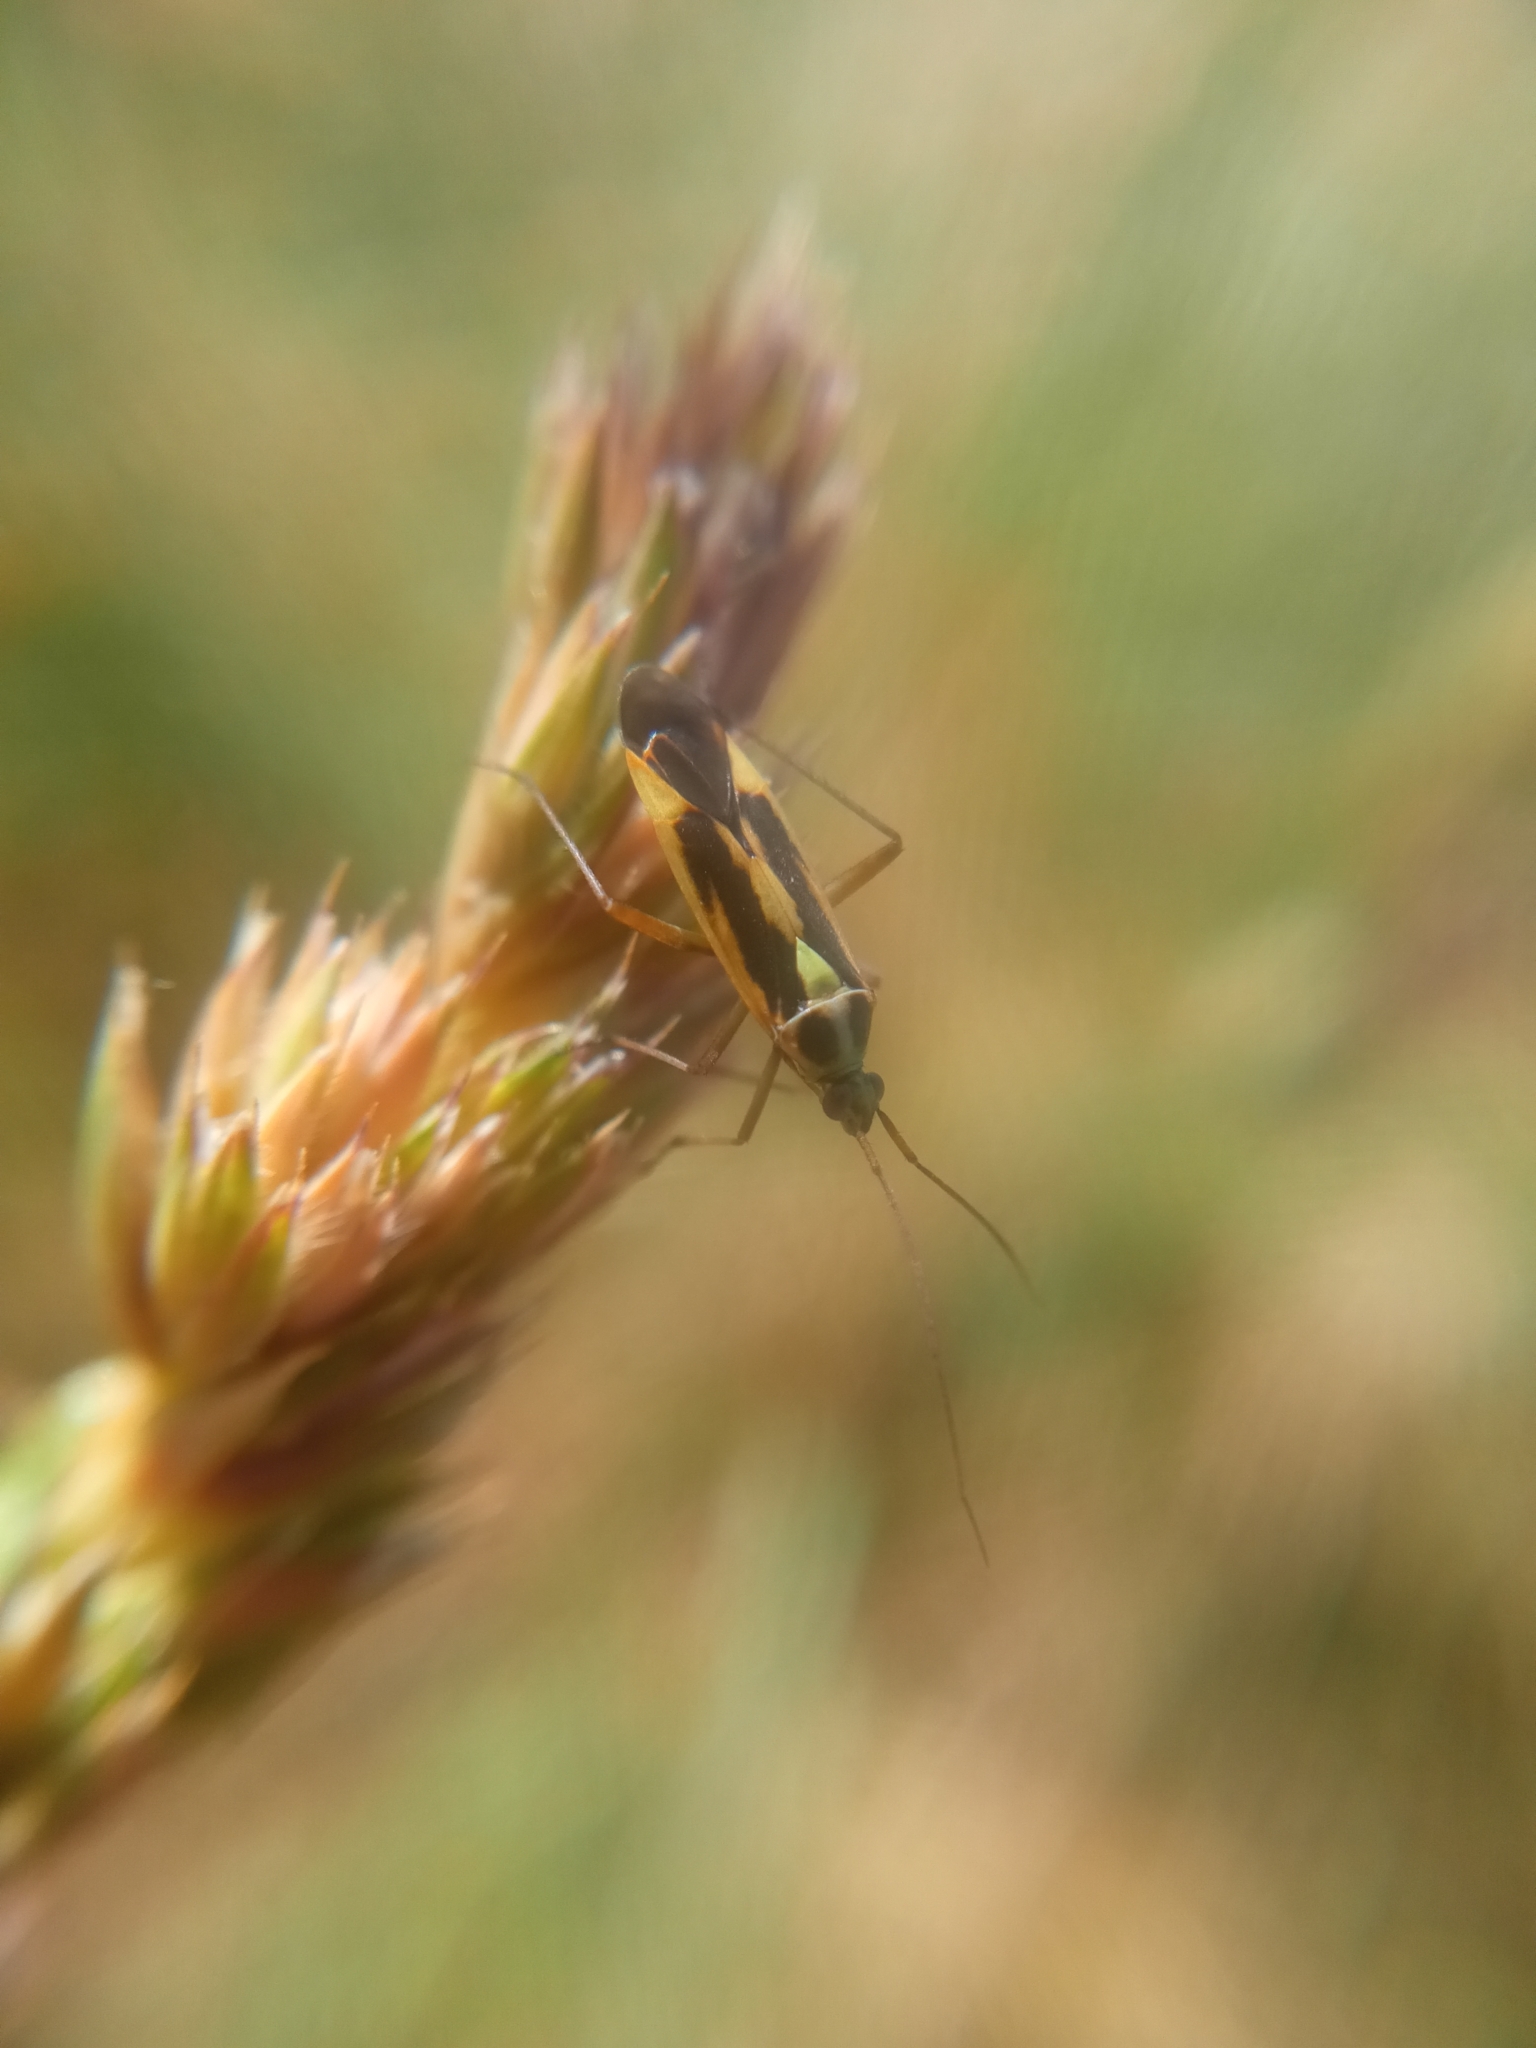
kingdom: Animalia
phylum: Arthropoda
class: Insecta
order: Hemiptera
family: Miridae
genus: Stenotus
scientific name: Stenotus binotatus
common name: Plant bug
